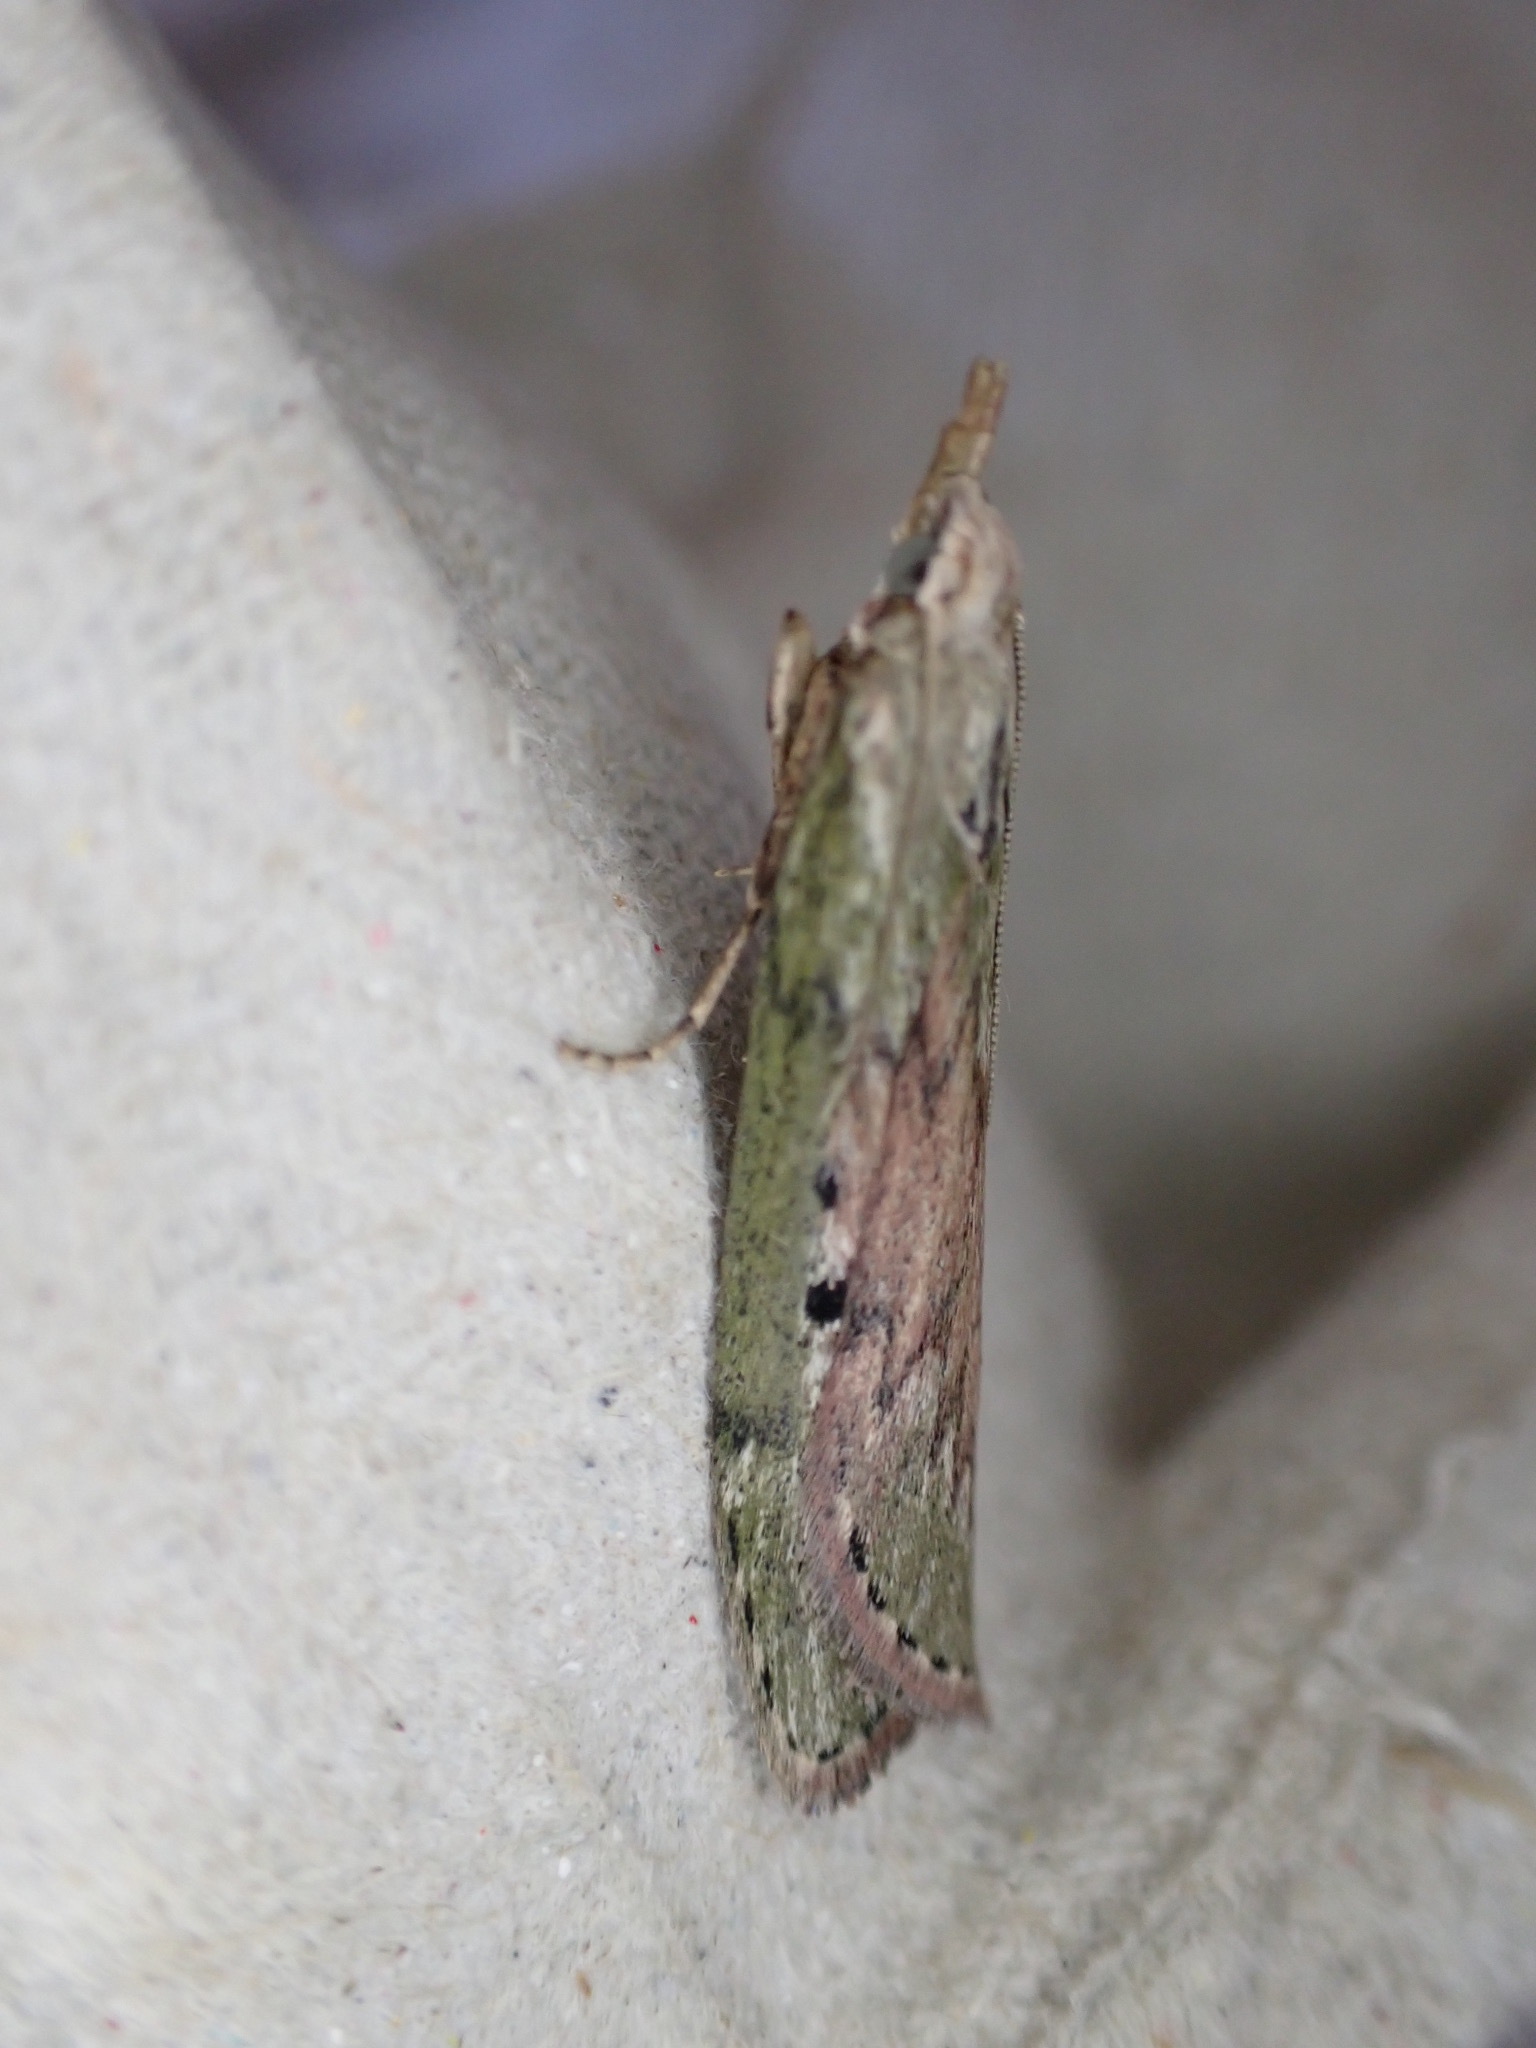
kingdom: Animalia
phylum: Arthropoda
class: Insecta
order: Lepidoptera
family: Pyralidae
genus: Aphomia
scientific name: Aphomia sociella
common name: Bee moth
